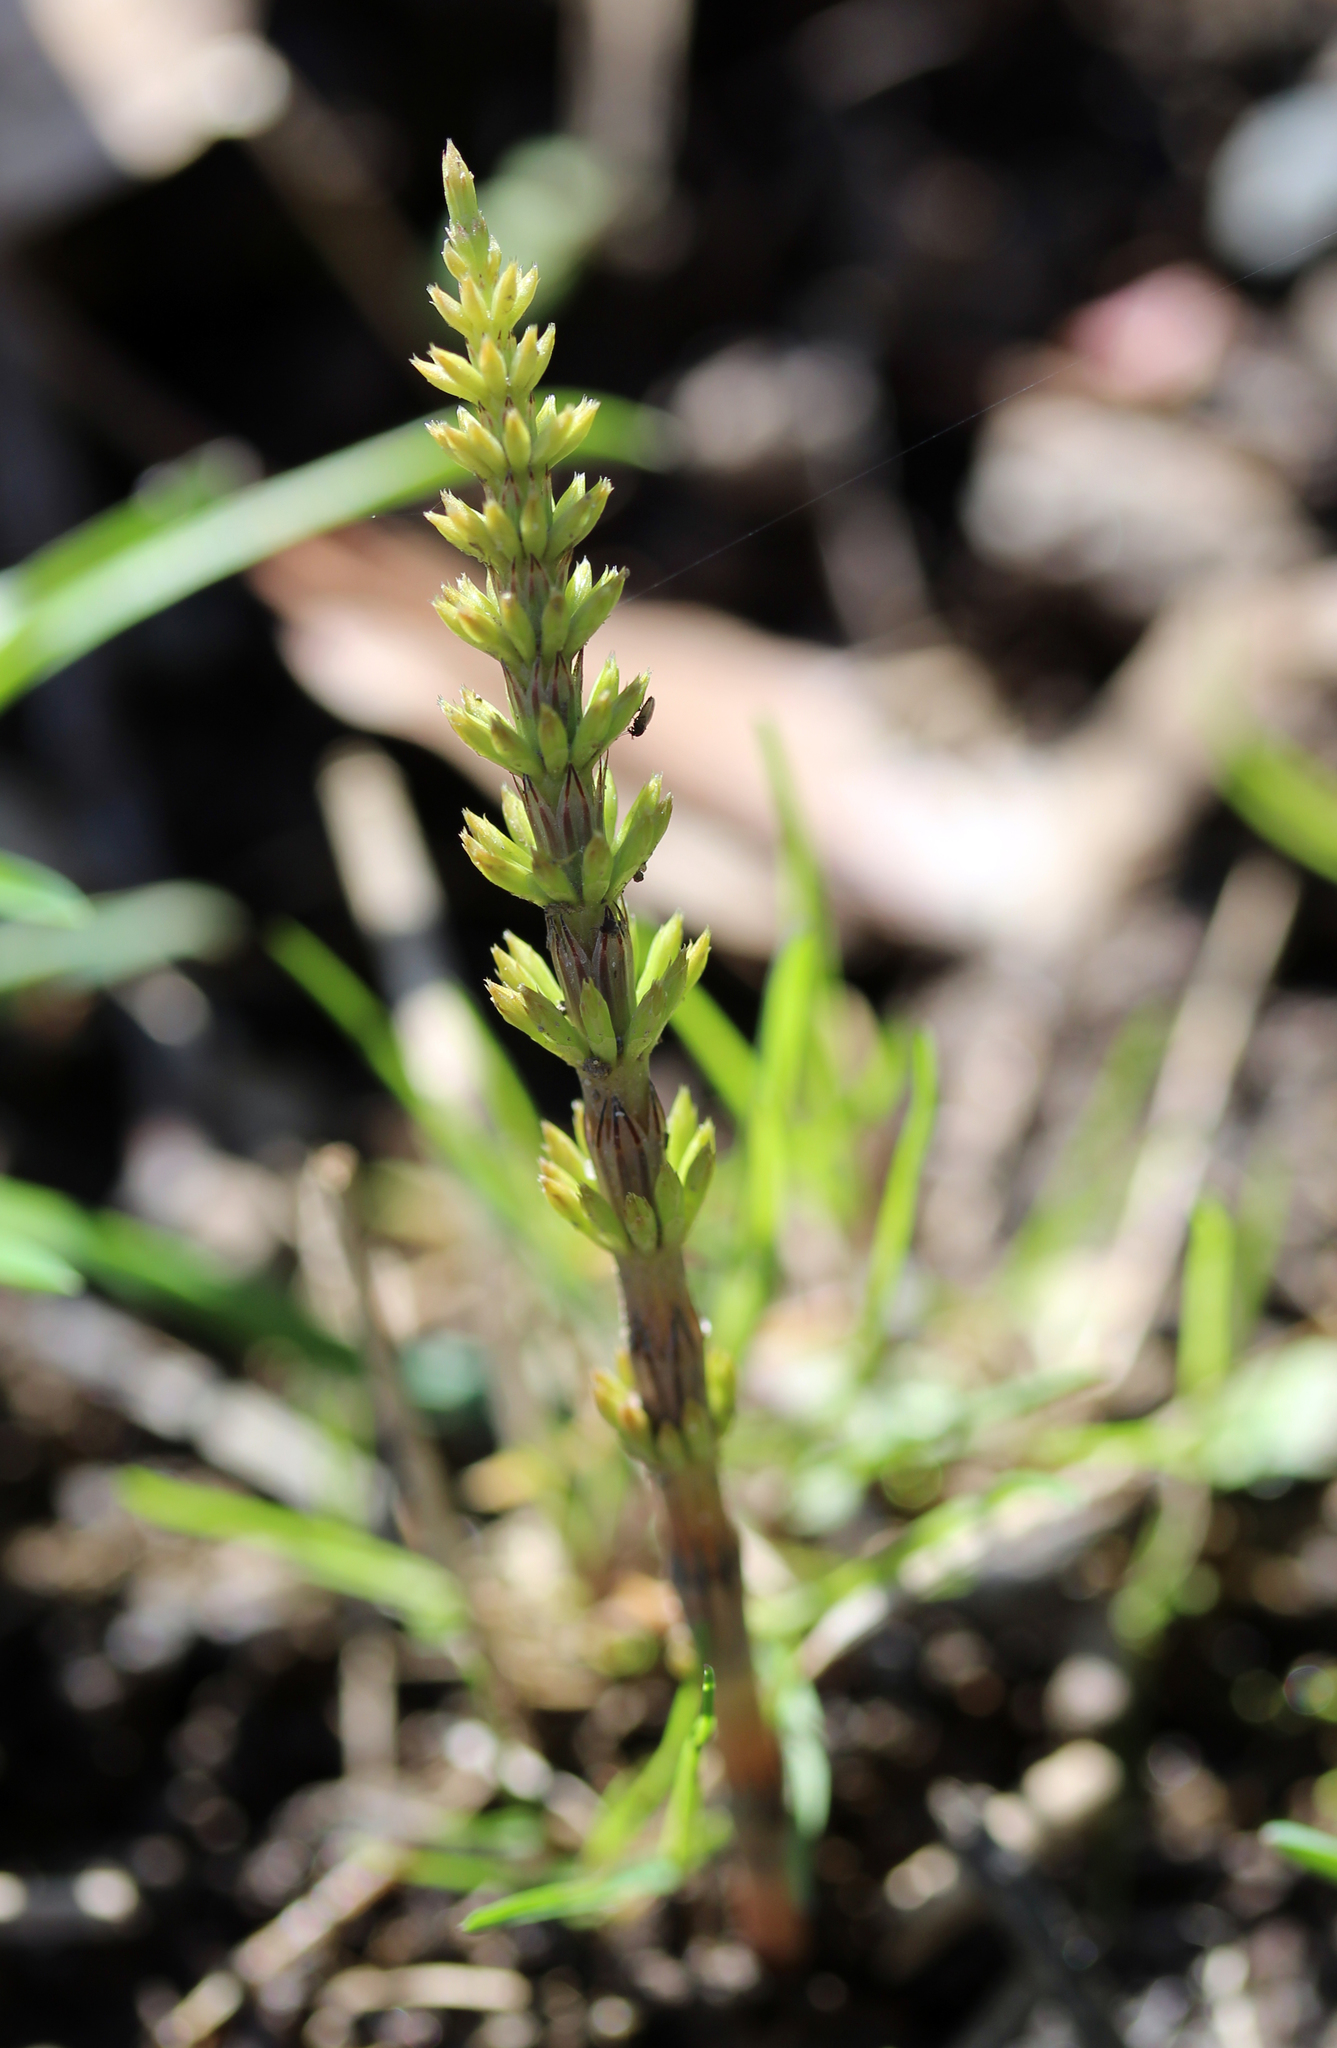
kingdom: Plantae
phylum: Tracheophyta
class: Polypodiopsida
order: Equisetales
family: Equisetaceae
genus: Equisetum
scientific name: Equisetum arvense
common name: Field horsetail
